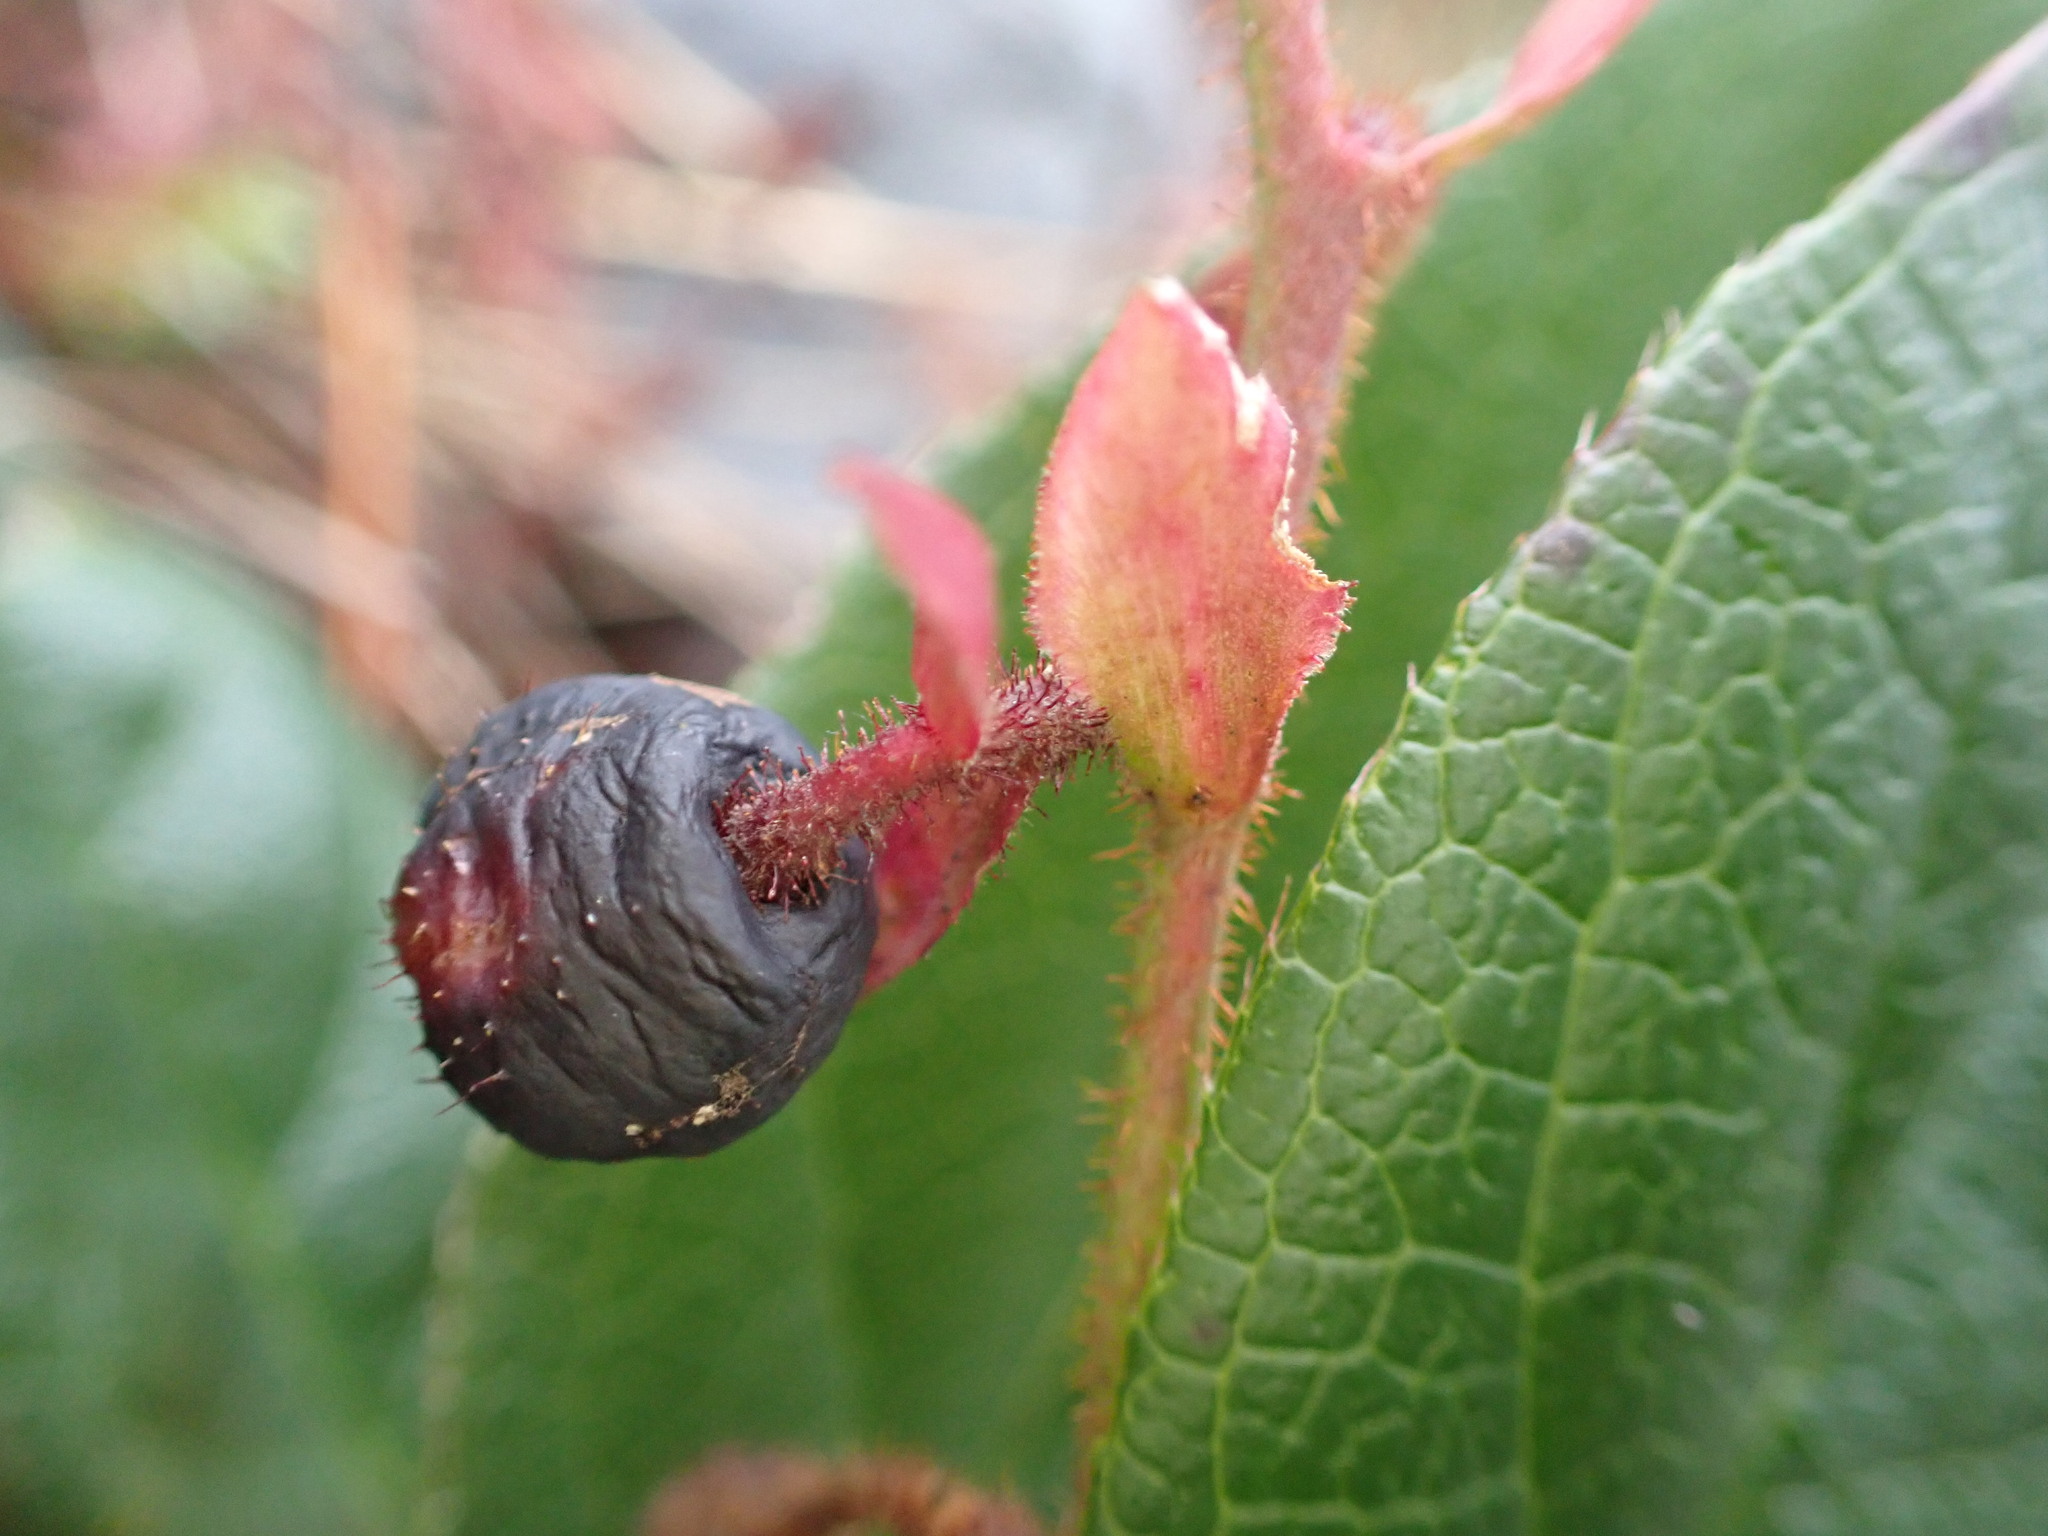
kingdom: Plantae
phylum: Tracheophyta
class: Magnoliopsida
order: Ericales
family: Ericaceae
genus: Gaultheria
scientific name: Gaultheria shallon
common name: Shallon
